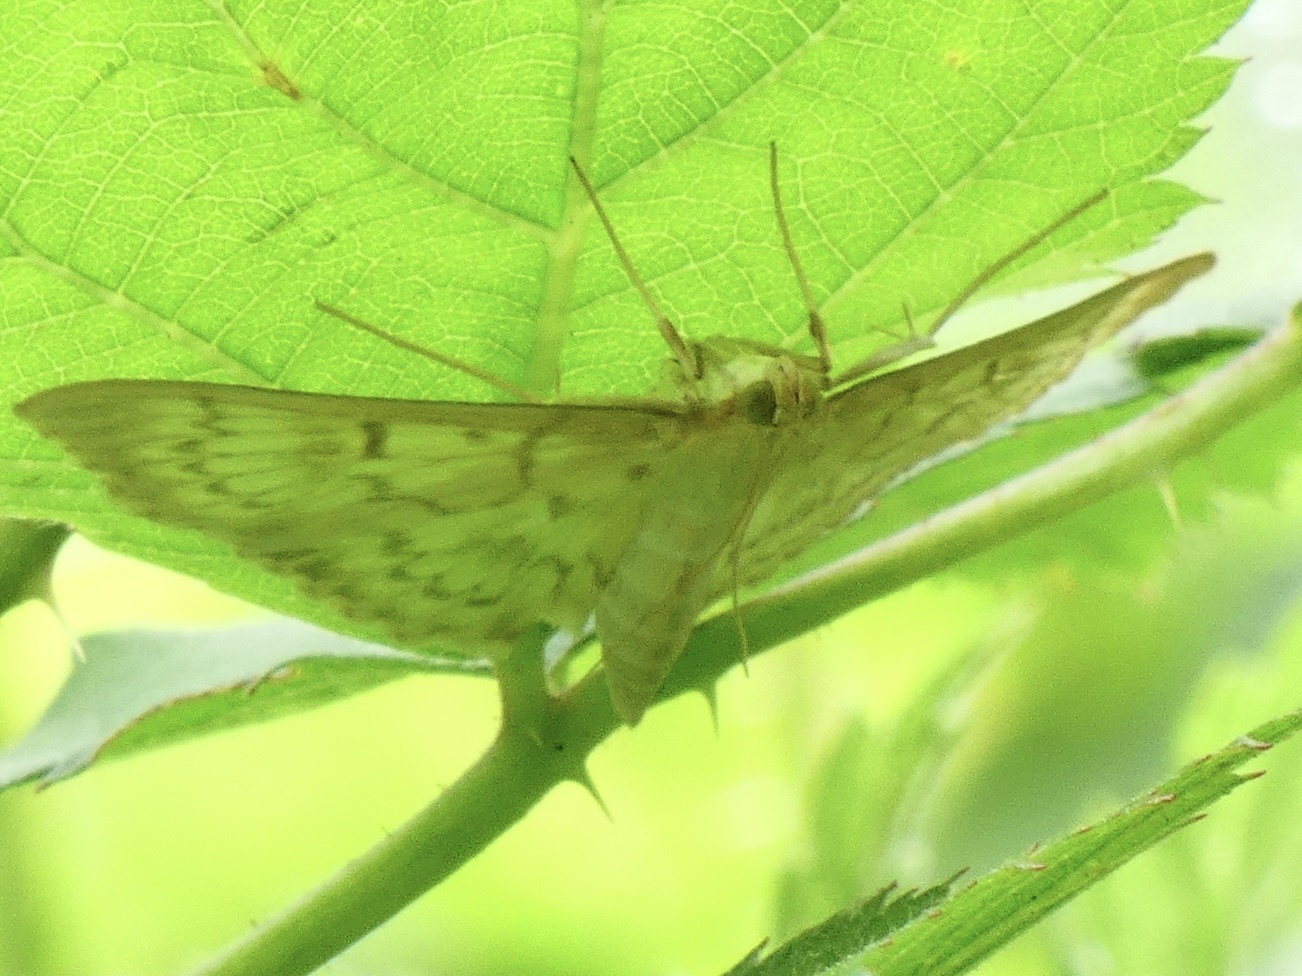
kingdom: Animalia
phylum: Arthropoda
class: Insecta
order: Lepidoptera
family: Crambidae
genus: Patania
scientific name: Patania ruralis
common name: Mother of pearl
